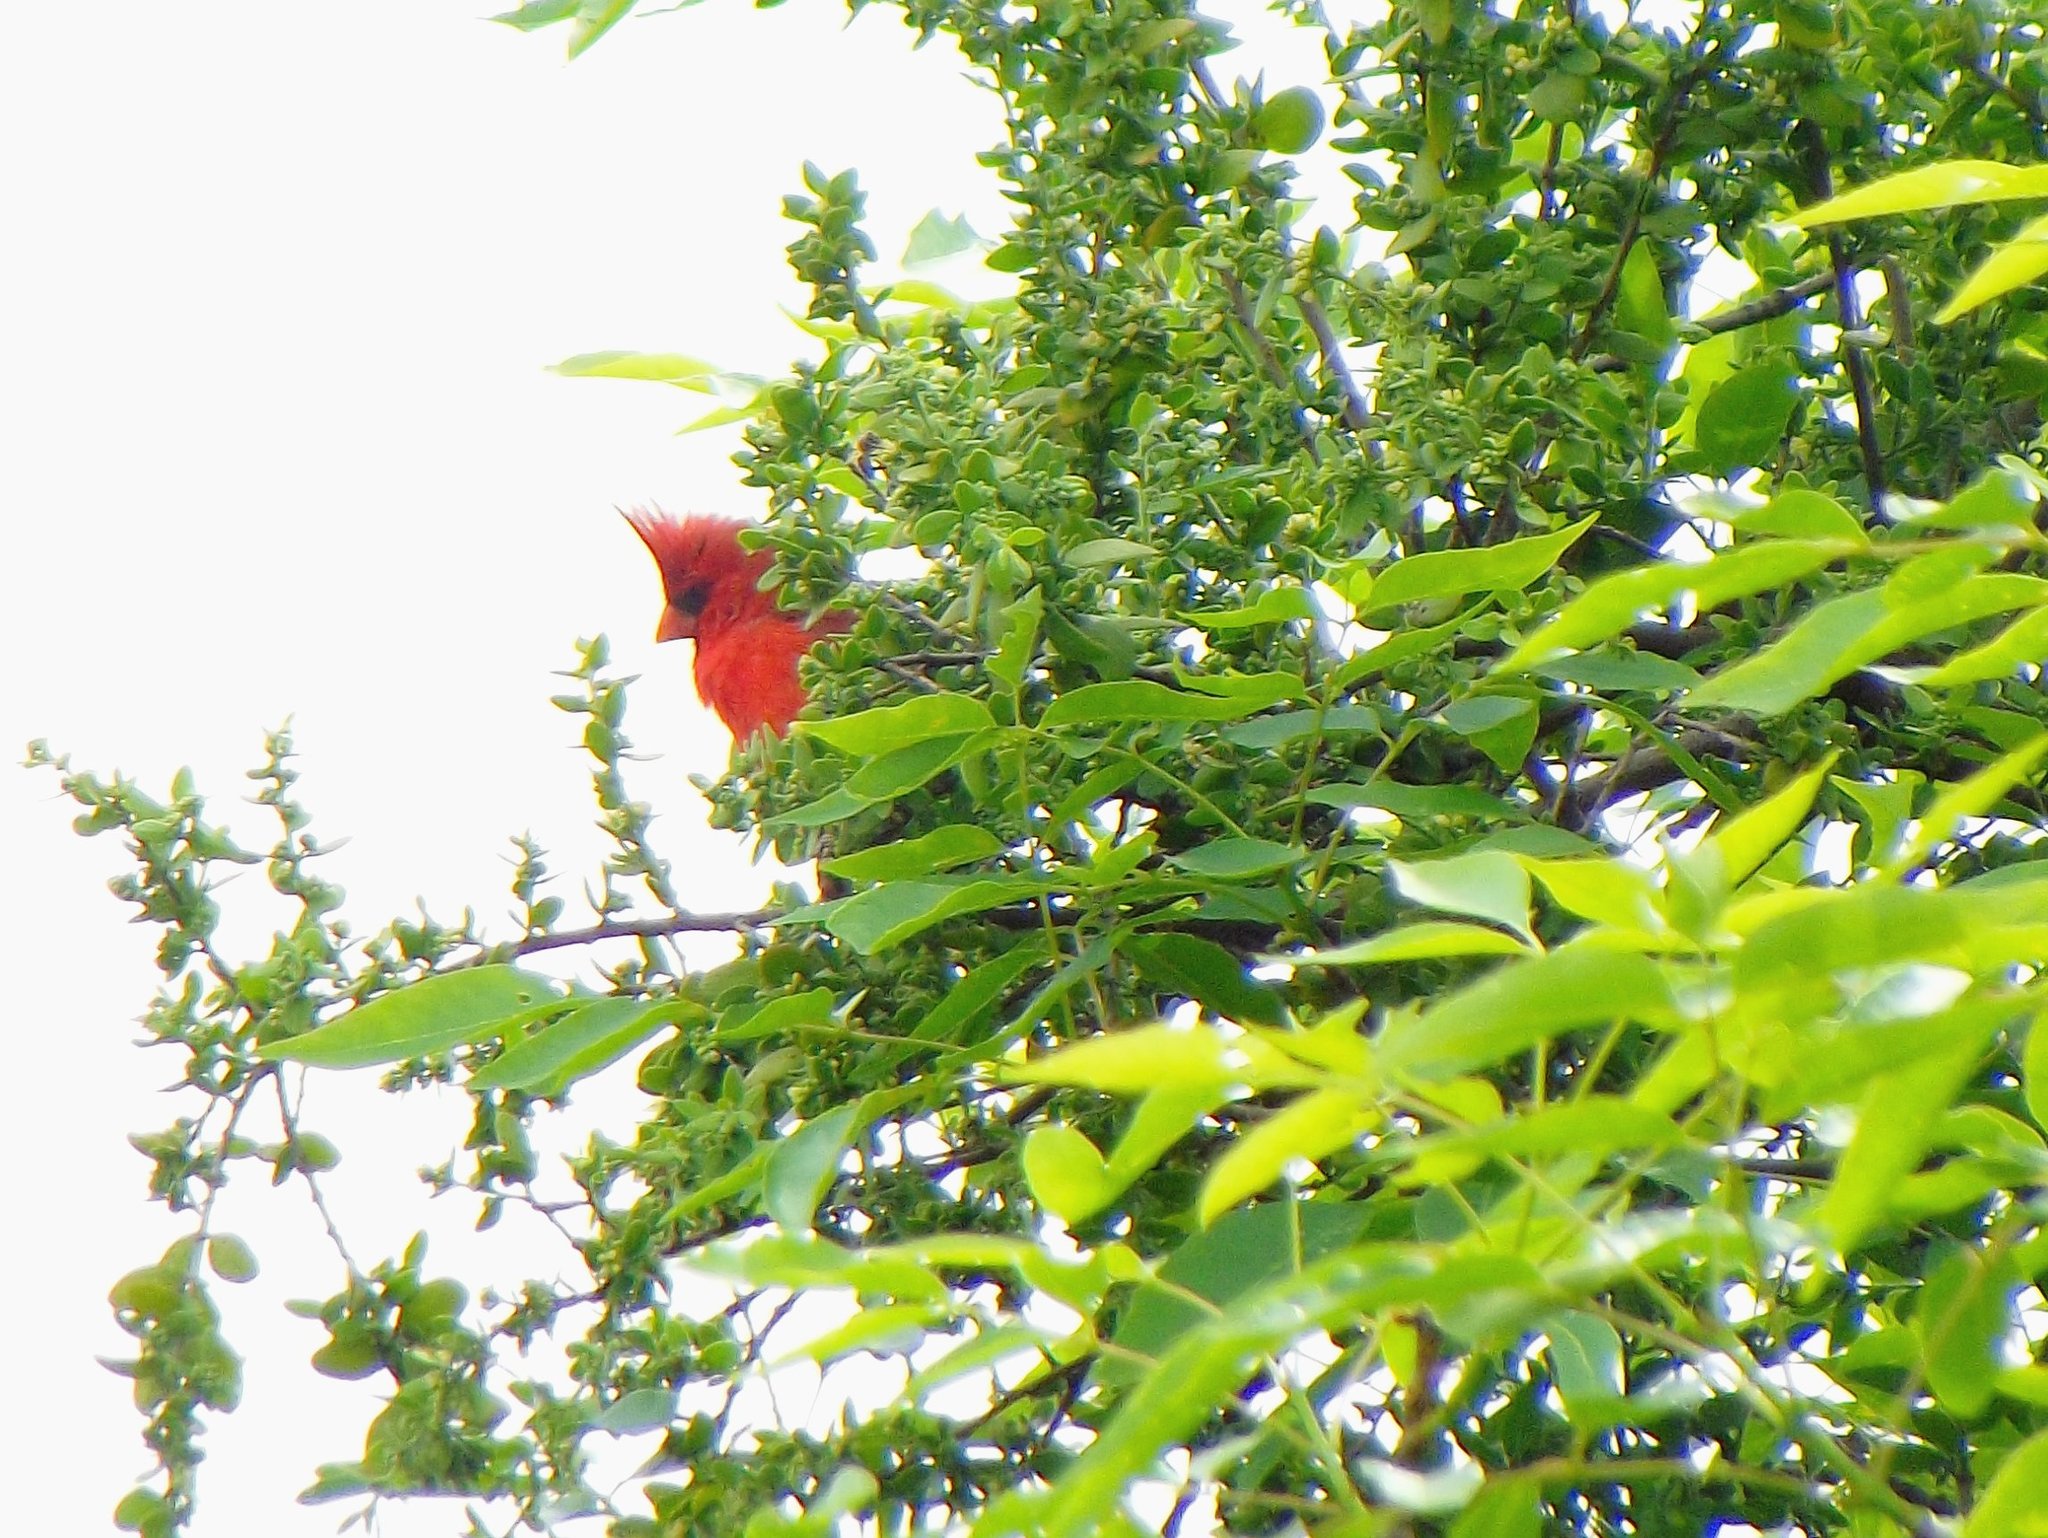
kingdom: Animalia
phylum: Chordata
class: Aves
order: Passeriformes
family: Cardinalidae
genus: Cardinalis
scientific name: Cardinalis cardinalis
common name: Northern cardinal
